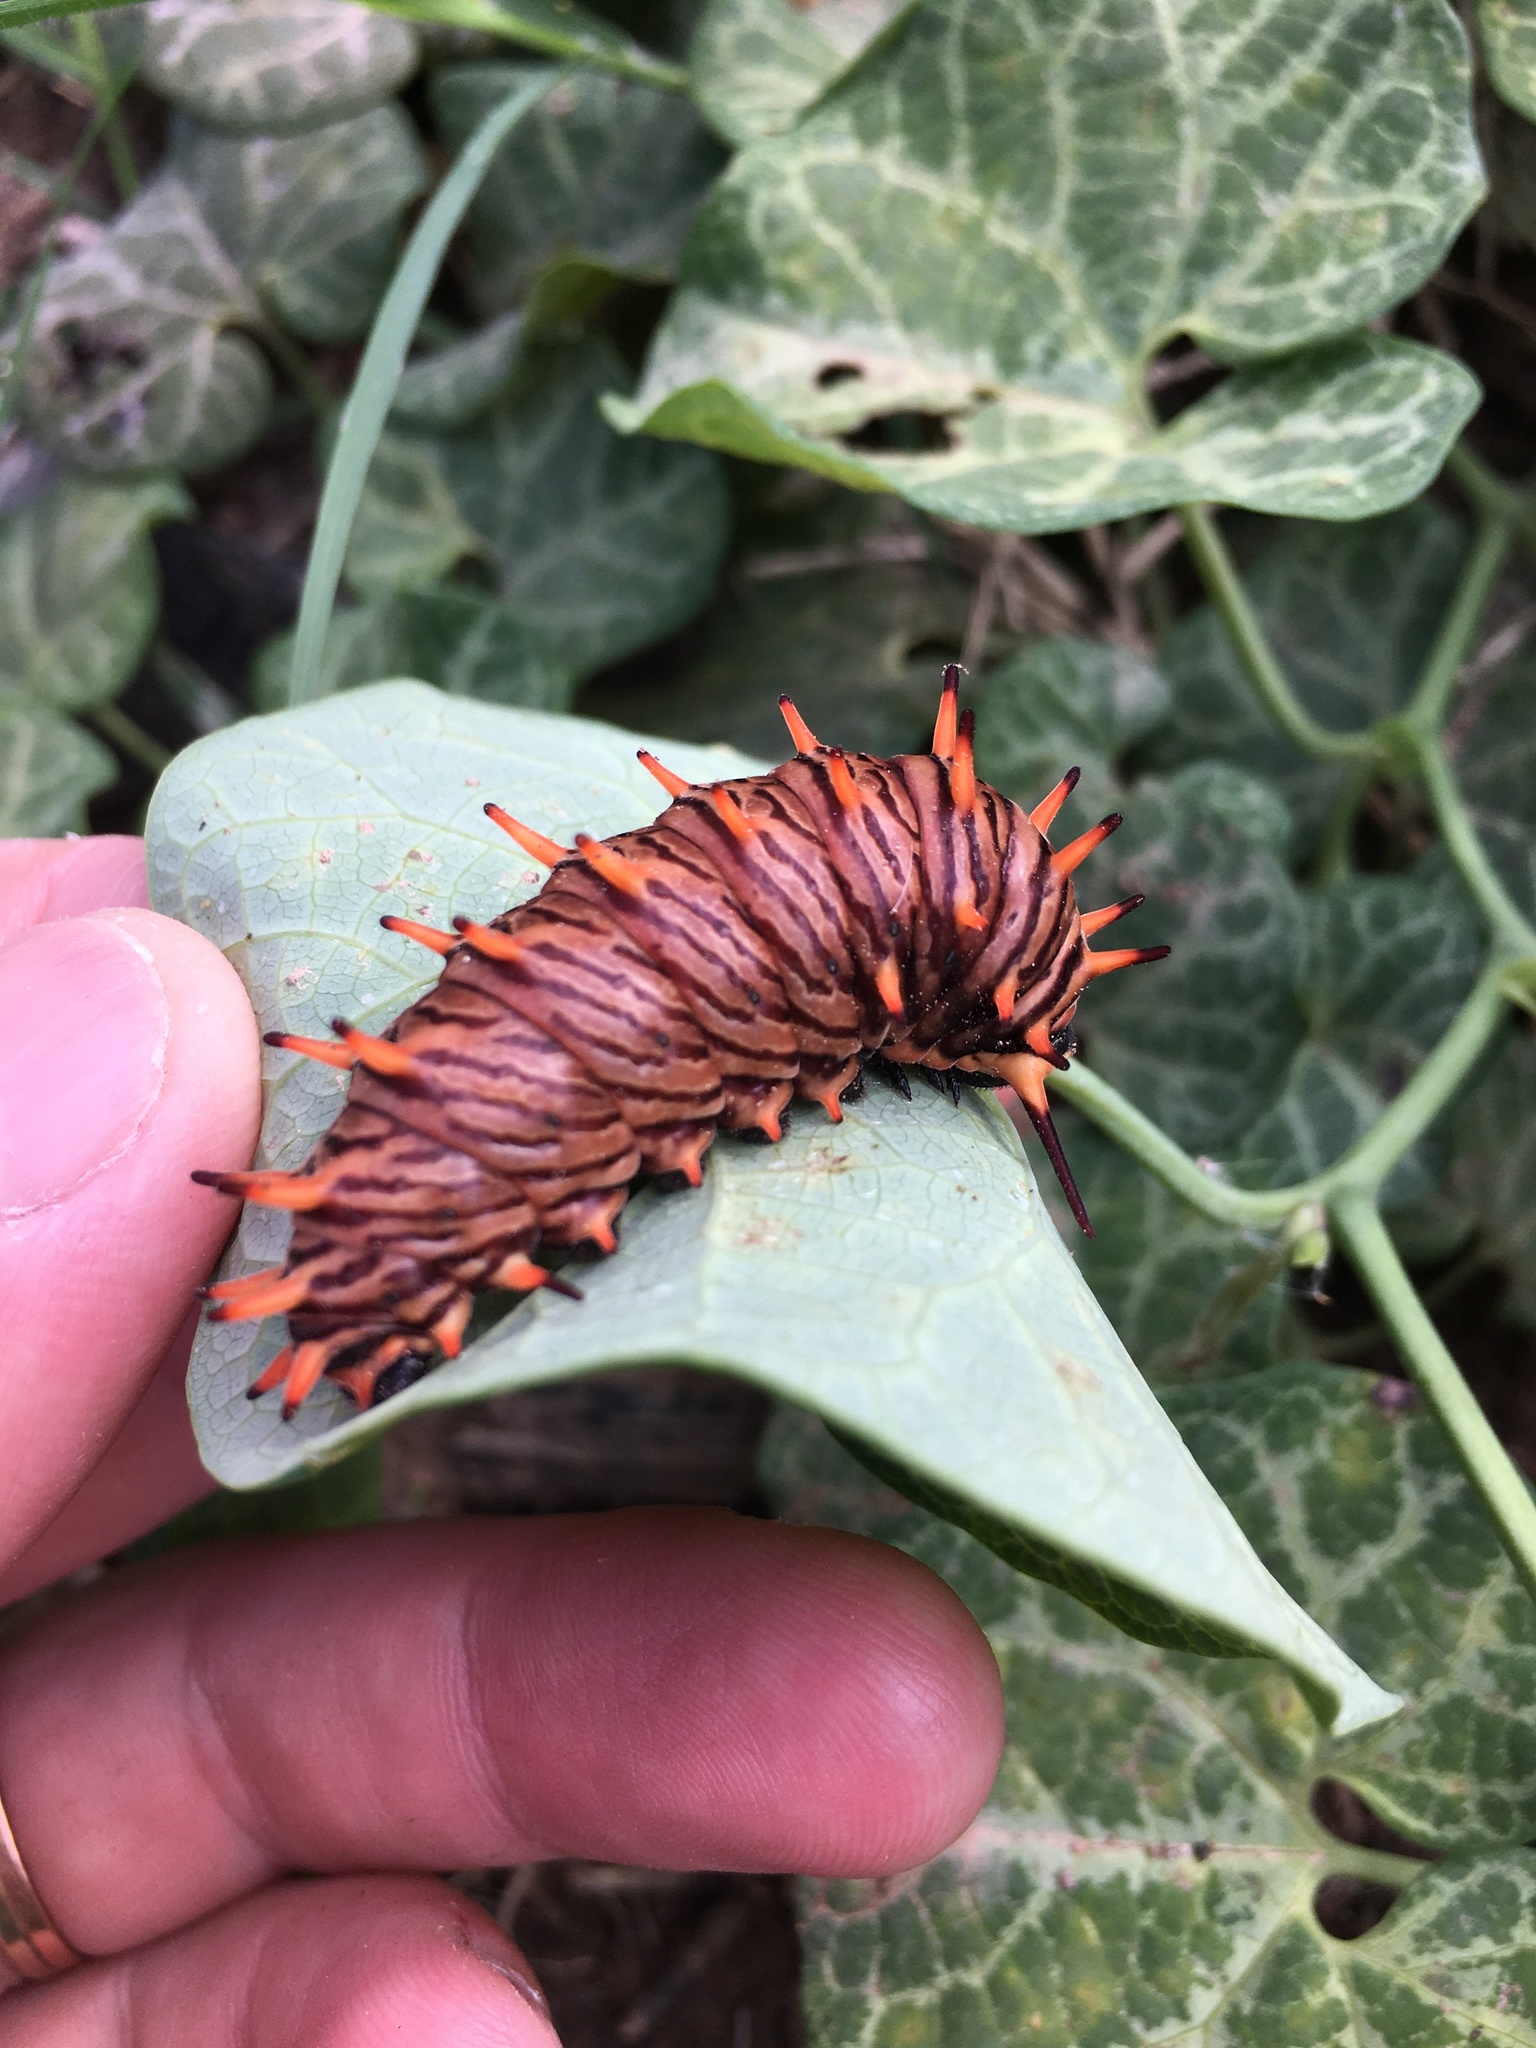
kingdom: Animalia
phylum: Arthropoda
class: Insecta
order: Lepidoptera
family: Papilionidae
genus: Battus
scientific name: Battus polydamas
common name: Polydamas swallowtail
